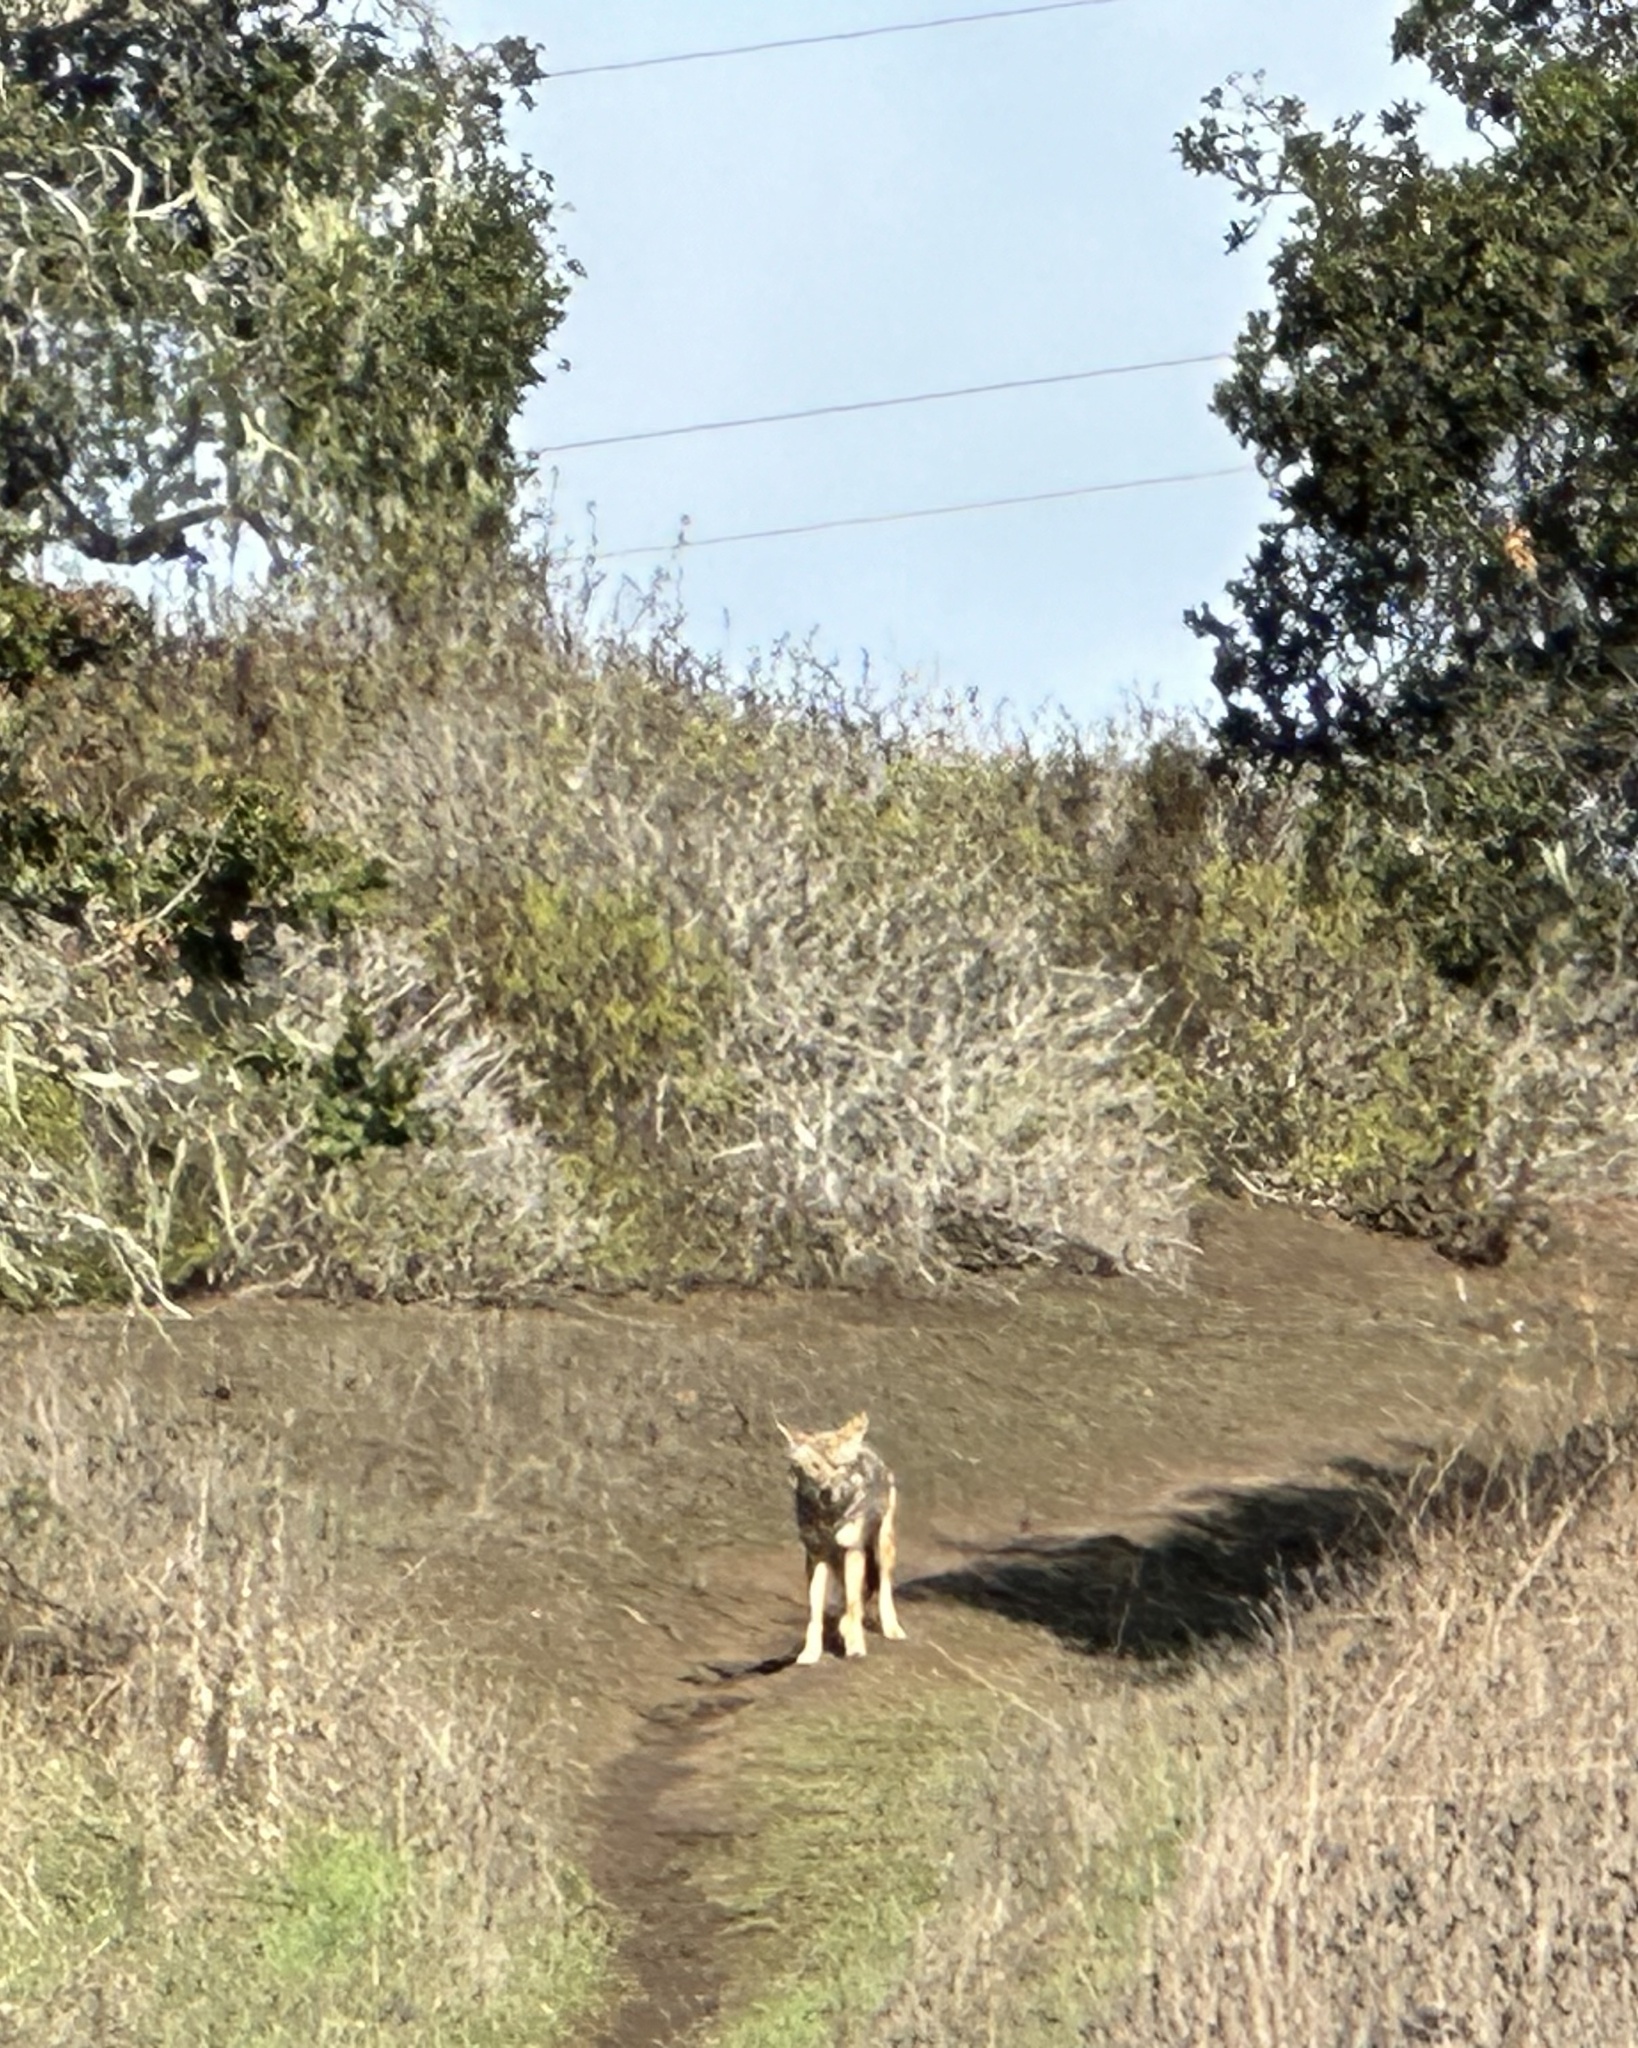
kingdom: Animalia
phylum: Chordata
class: Mammalia
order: Carnivora
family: Canidae
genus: Canis
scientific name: Canis latrans
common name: Coyote
